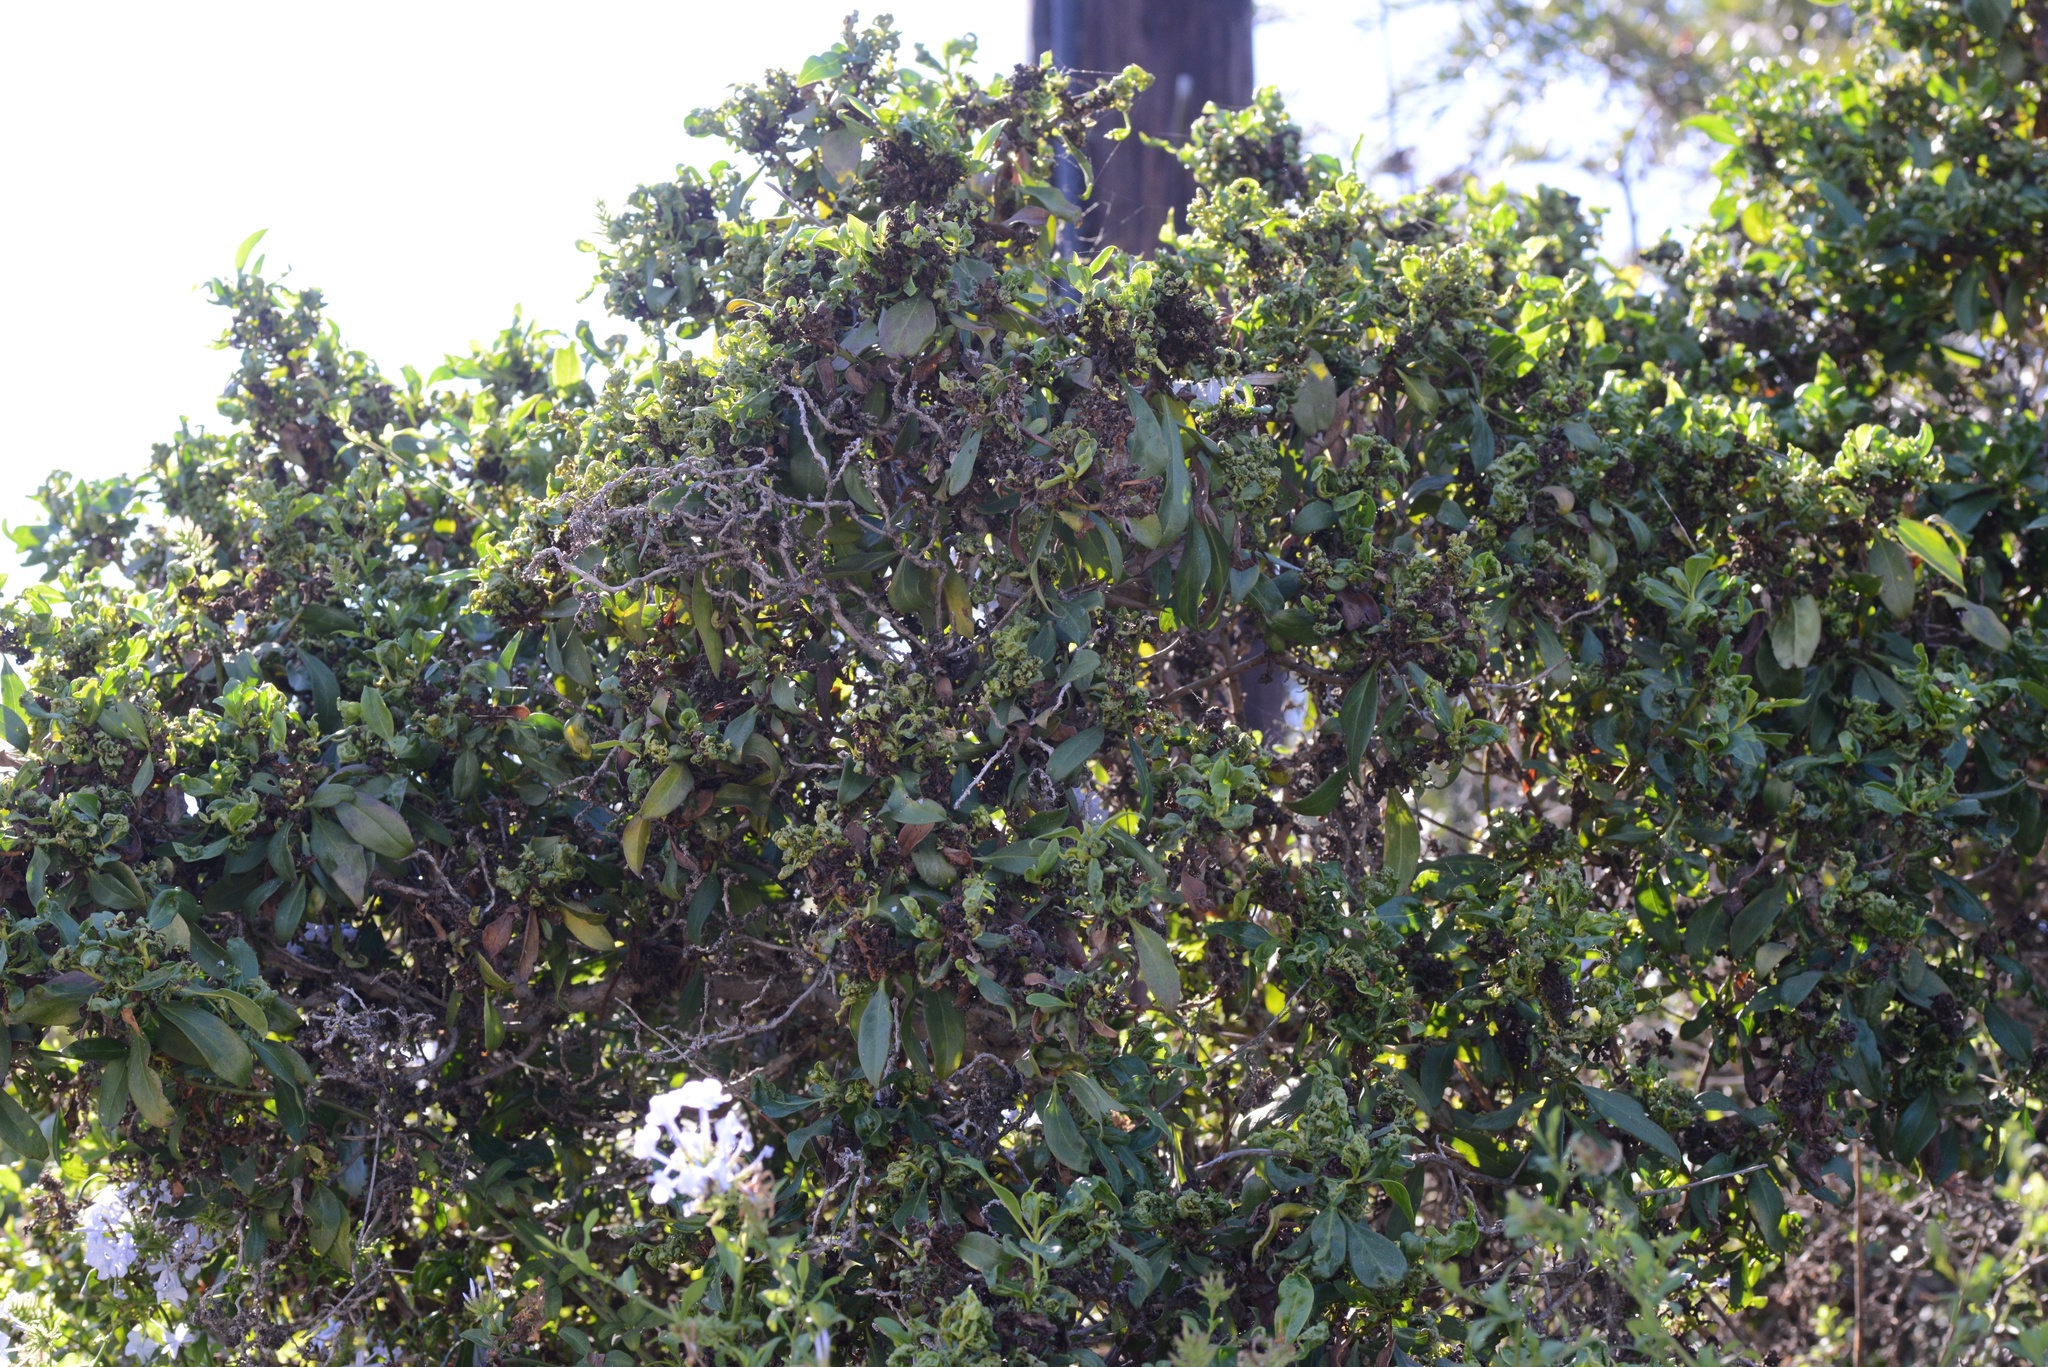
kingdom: Animalia
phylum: Arthropoda
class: Insecta
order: Thysanoptera
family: Phlaeothripidae
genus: Klambothrips
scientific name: Klambothrips myopori
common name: Myoporum thrips
